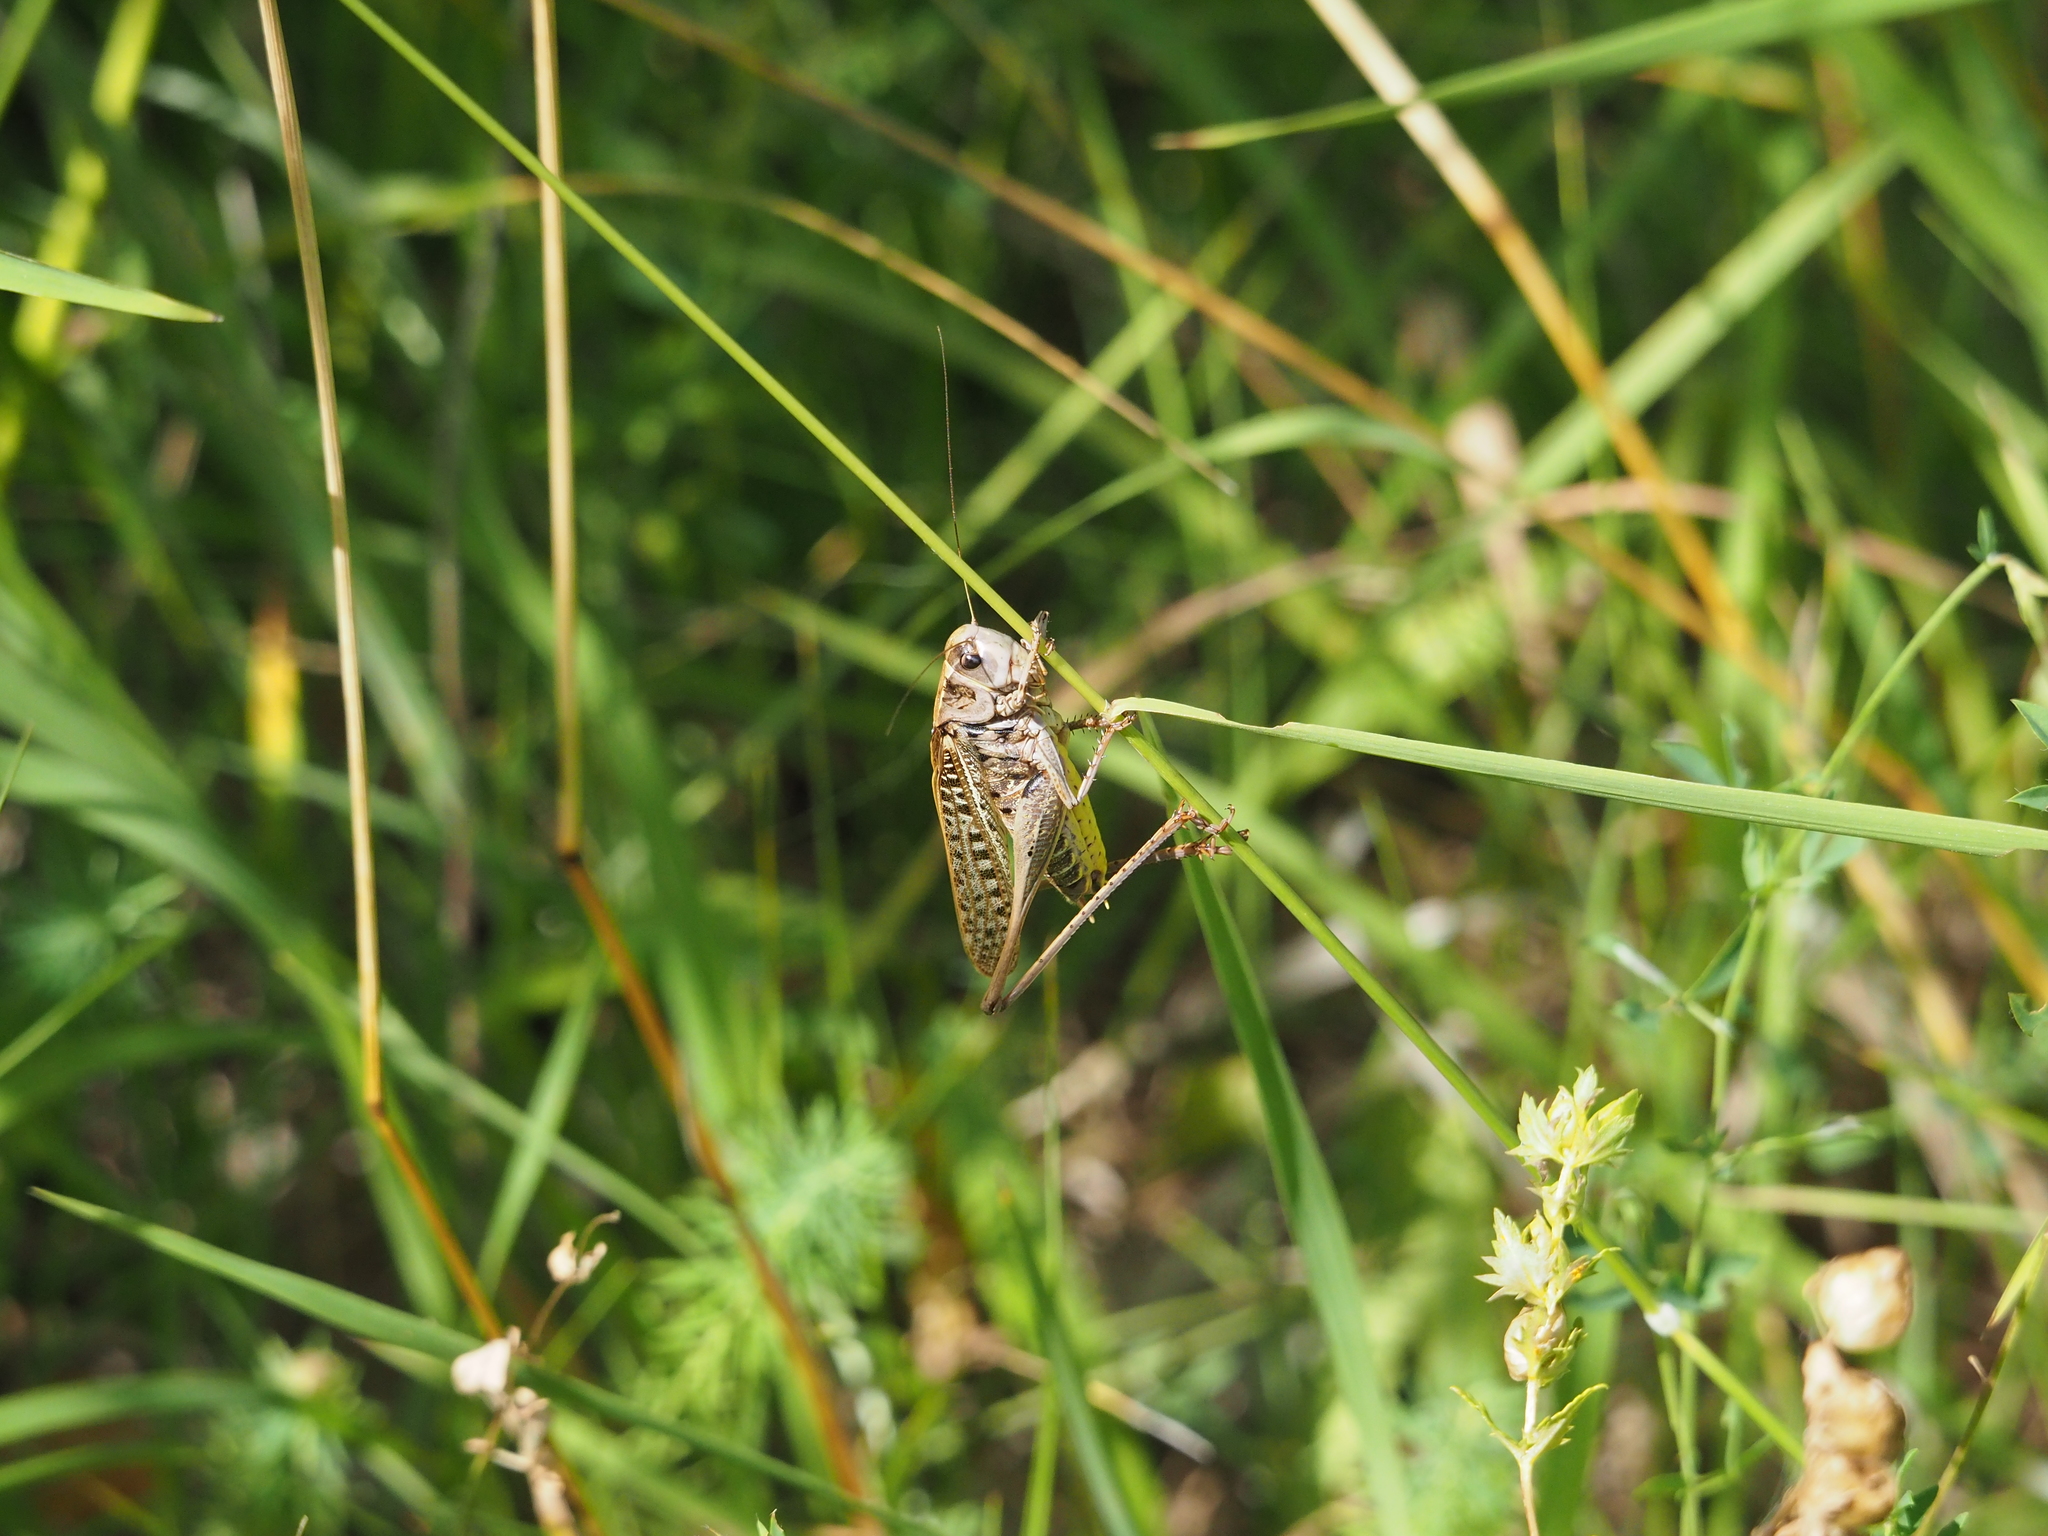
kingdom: Animalia
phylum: Arthropoda
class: Insecta
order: Orthoptera
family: Tettigoniidae
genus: Decticus
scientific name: Decticus verrucivorus
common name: Wart-biter
